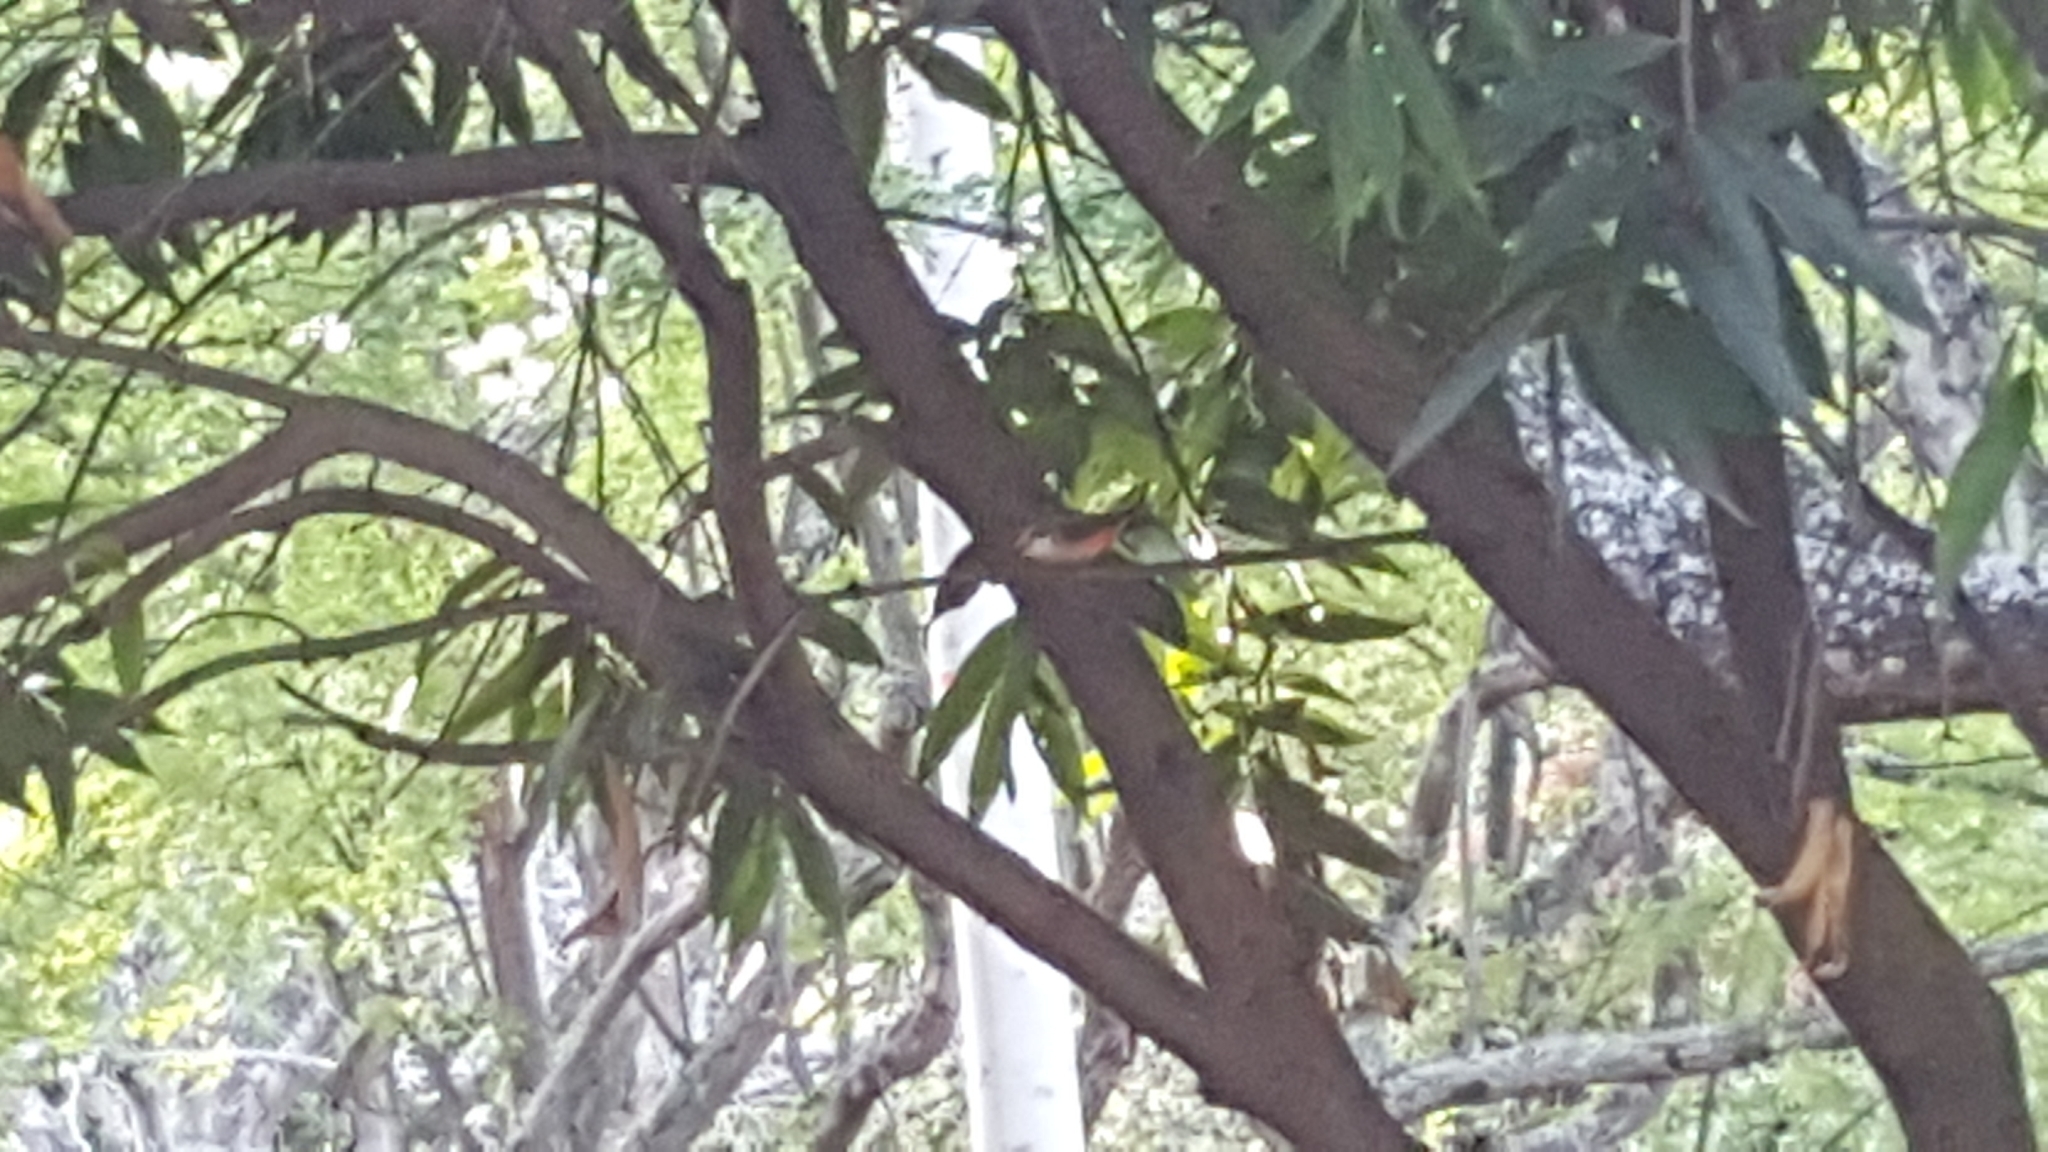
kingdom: Animalia
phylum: Chordata
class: Aves
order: Passeriformes
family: Tyrannidae
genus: Pyrocephalus
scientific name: Pyrocephalus rubinus
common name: Vermilion flycatcher
